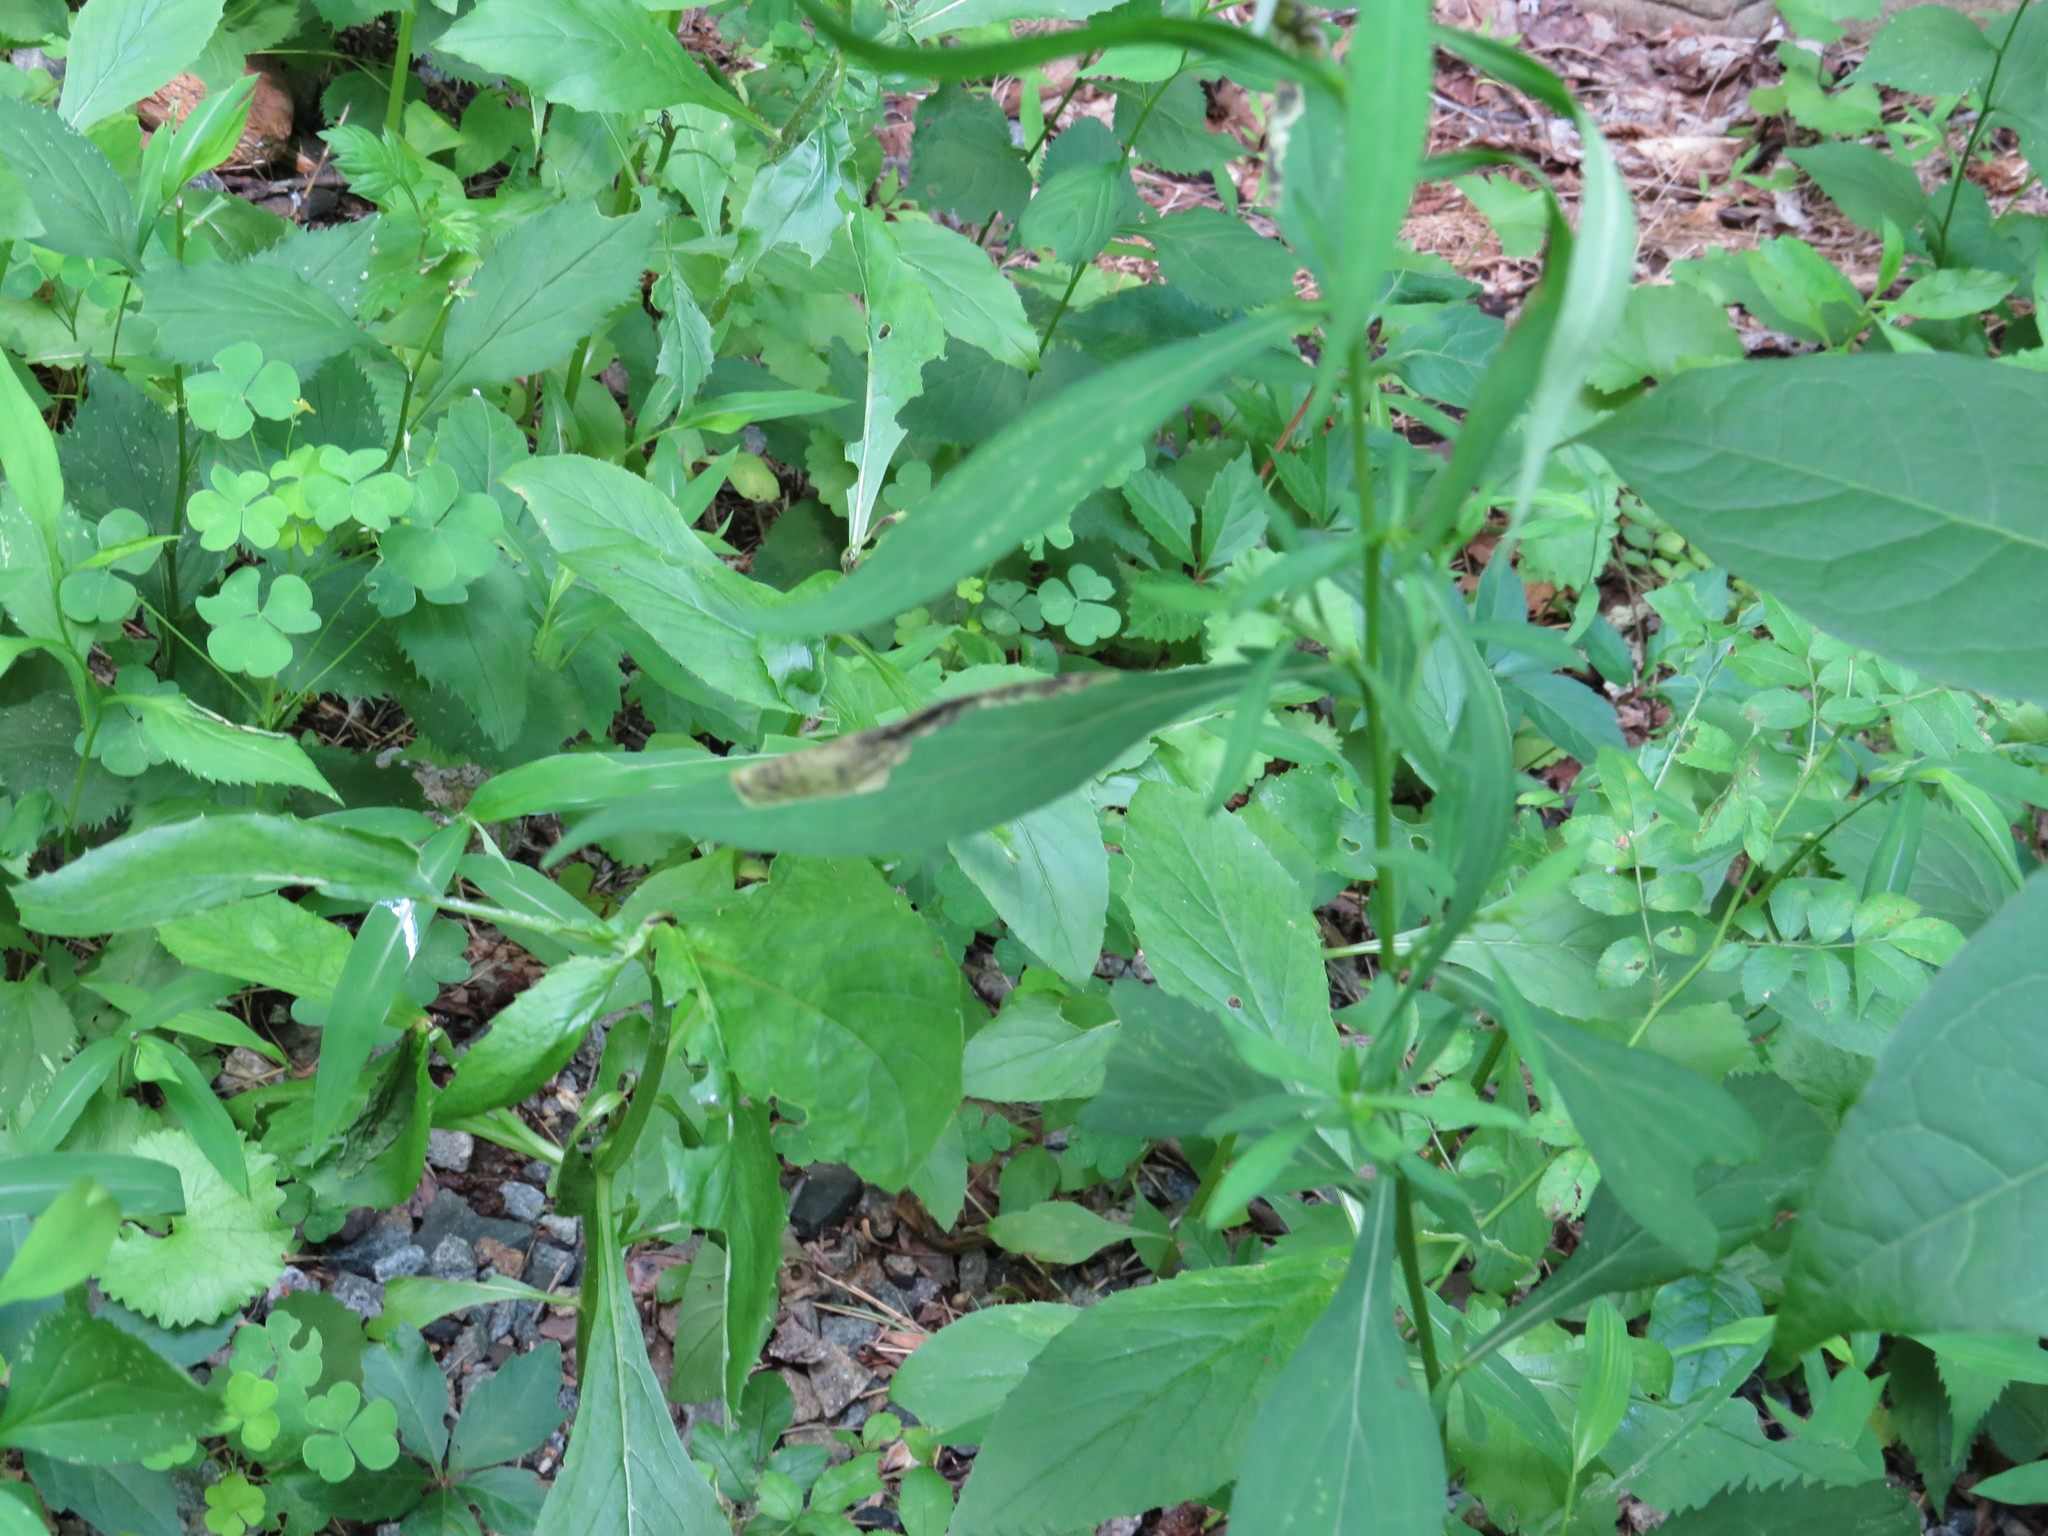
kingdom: Animalia
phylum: Arthropoda
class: Insecta
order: Diptera
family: Agromyzidae
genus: Nemorimyza
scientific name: Nemorimyza posticata
